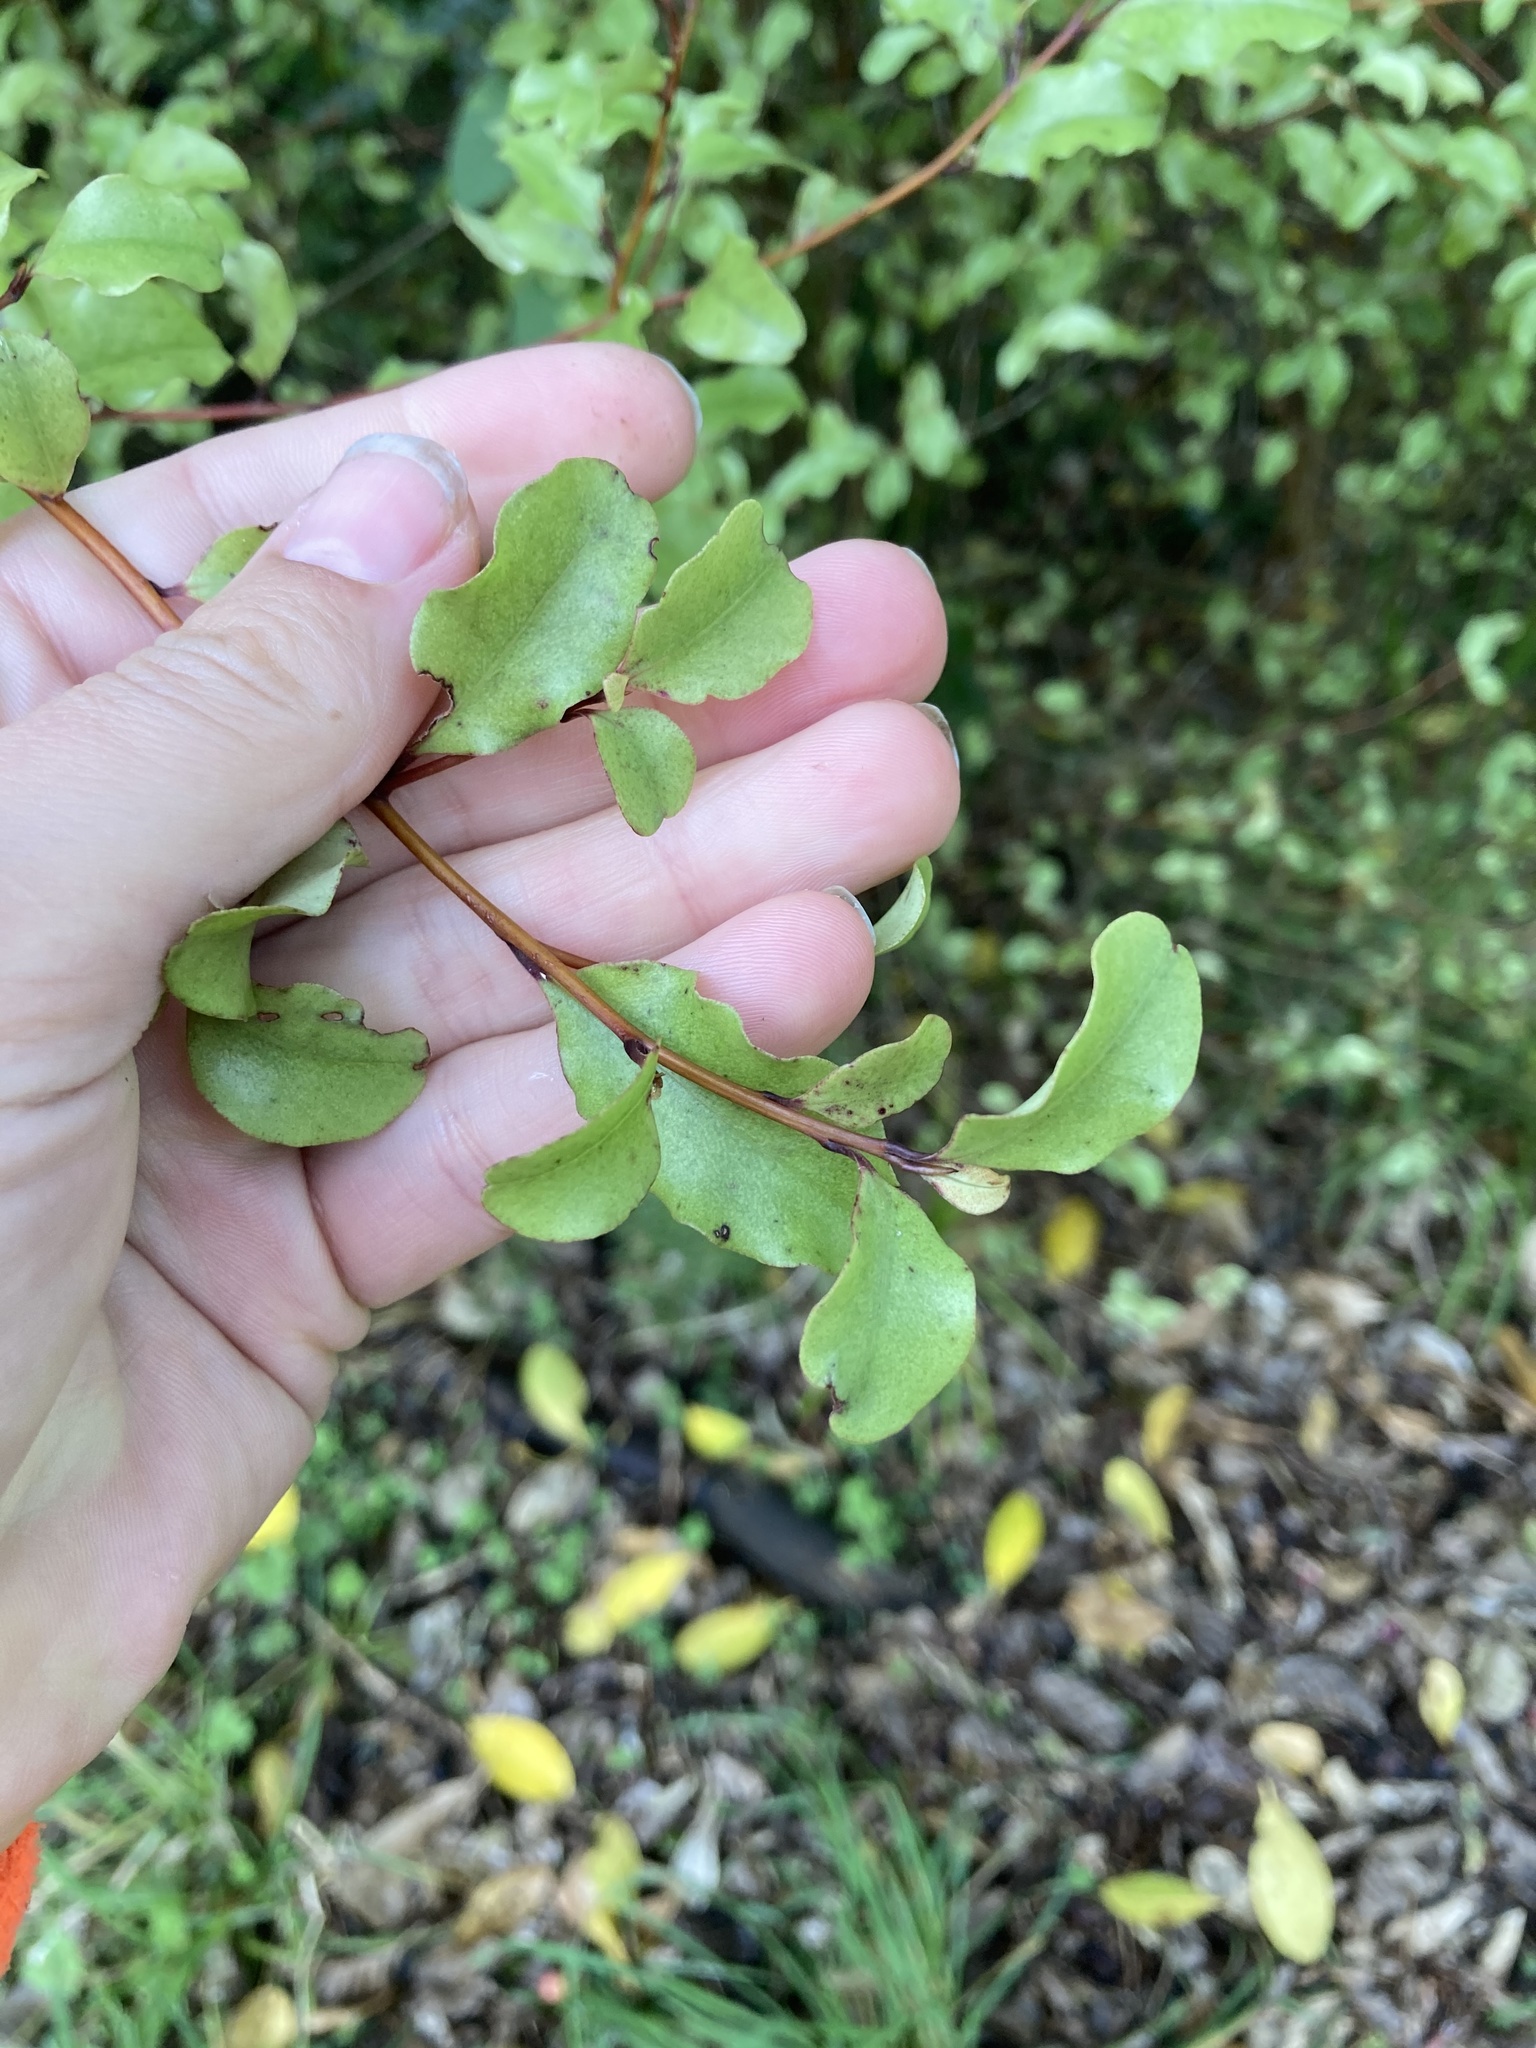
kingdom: Plantae
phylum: Tracheophyta
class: Magnoliopsida
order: Ericales
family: Primulaceae
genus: Myrsine
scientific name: Myrsine australis
